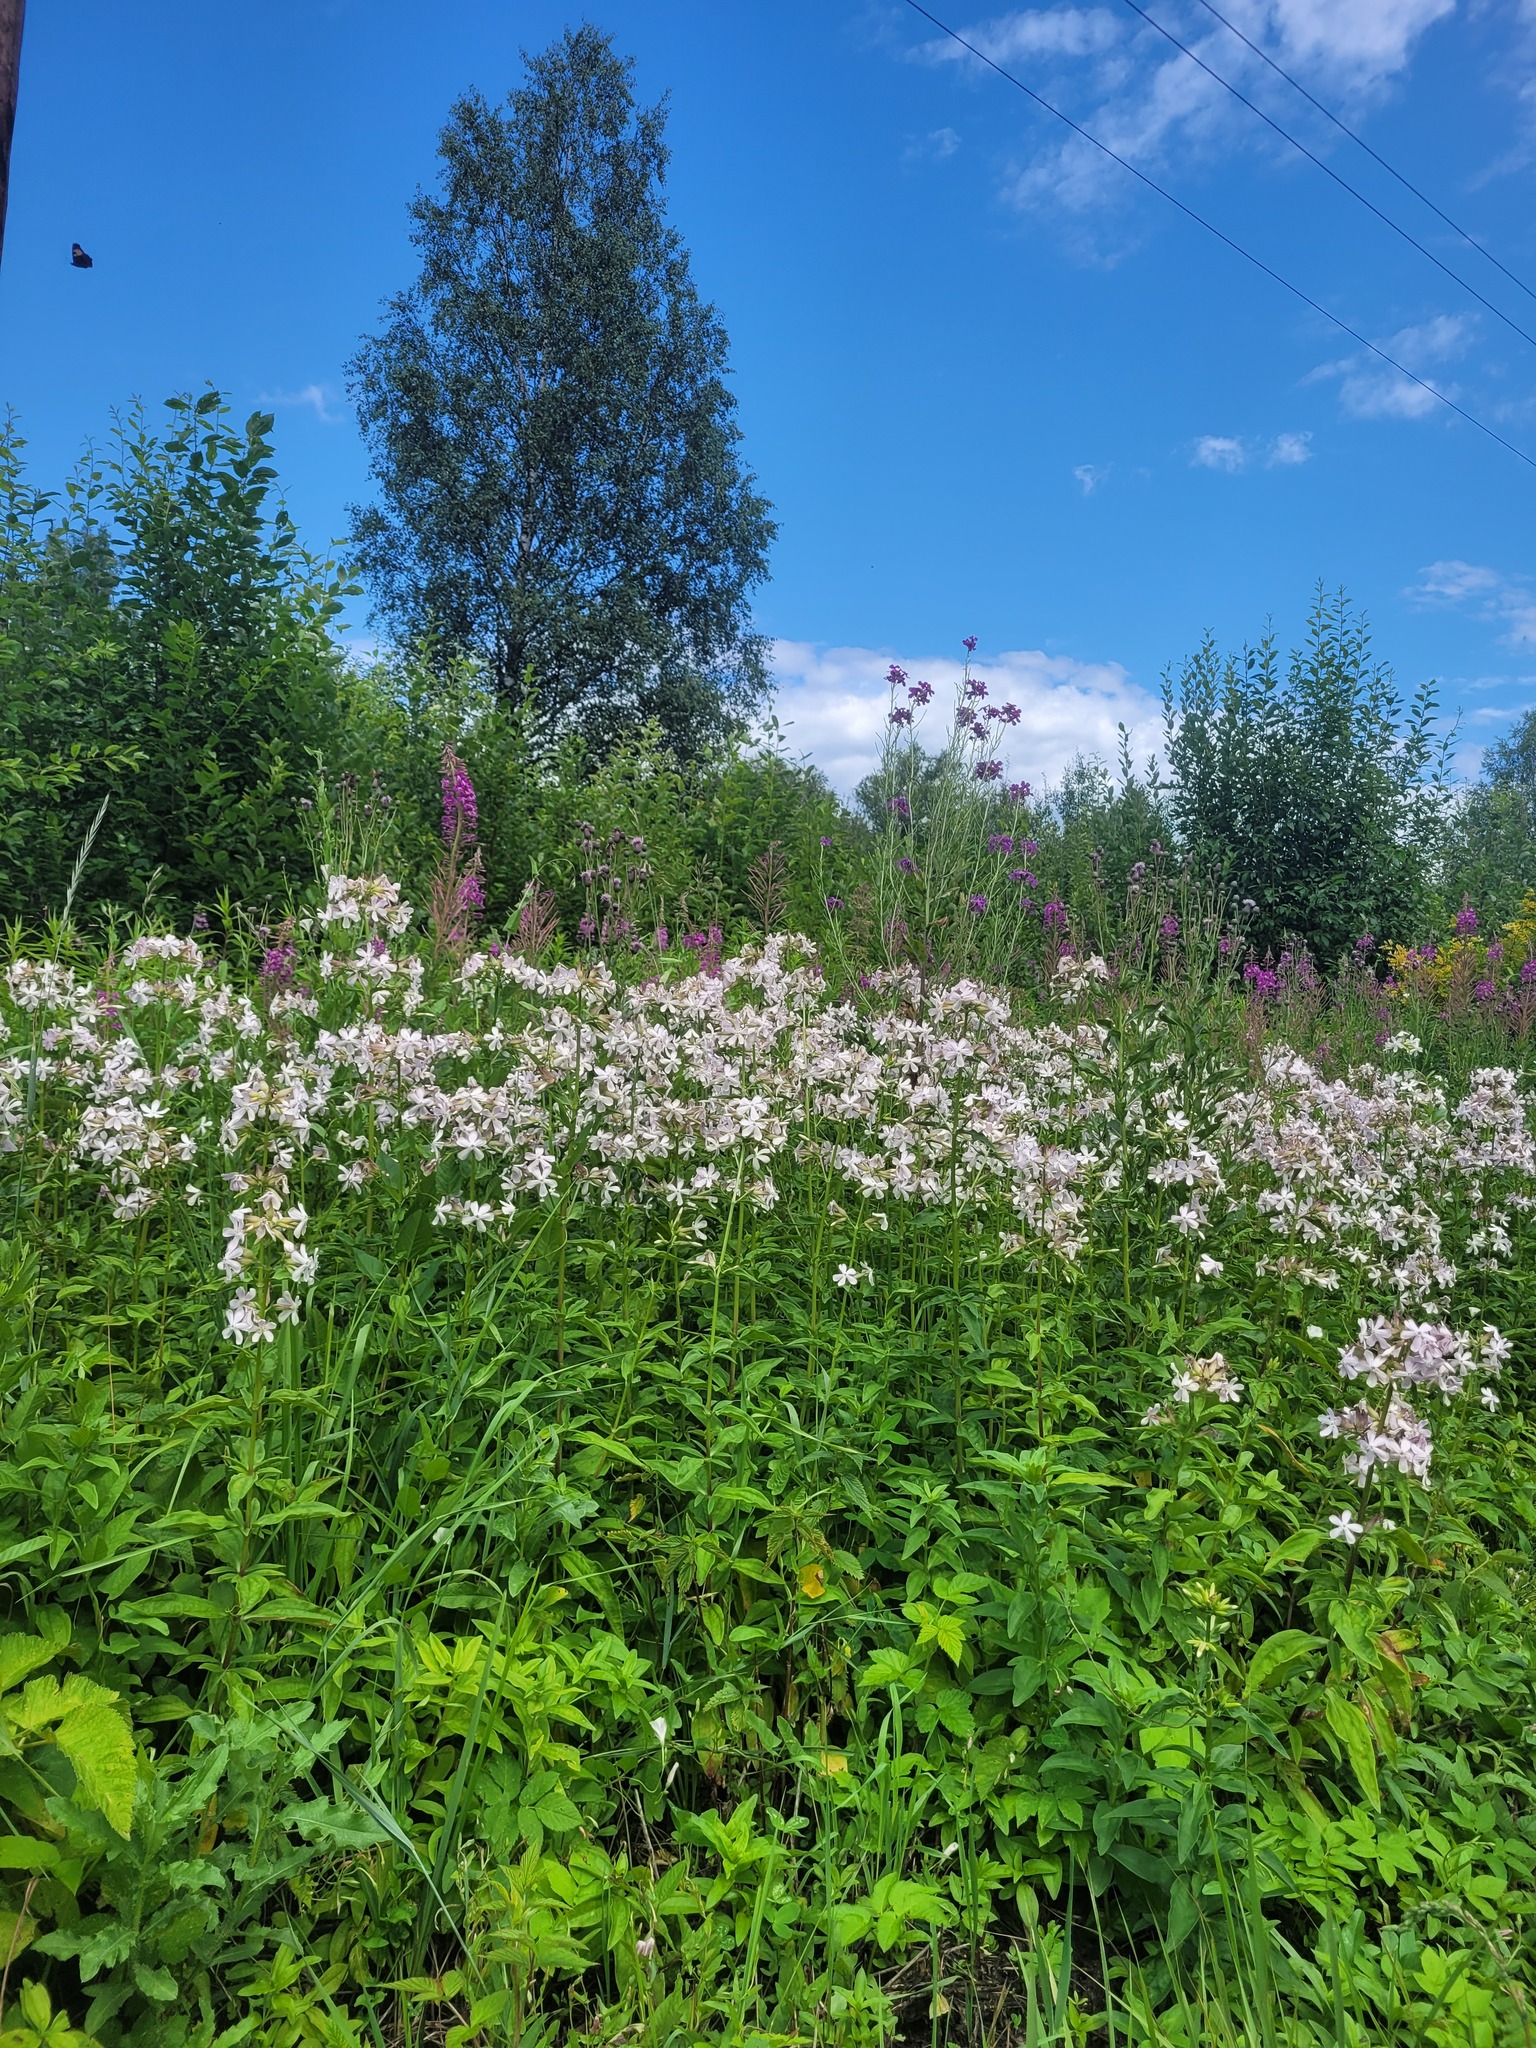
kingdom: Plantae
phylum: Tracheophyta
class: Magnoliopsida
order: Caryophyllales
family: Caryophyllaceae
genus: Saponaria
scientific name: Saponaria officinalis
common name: Soapwort
